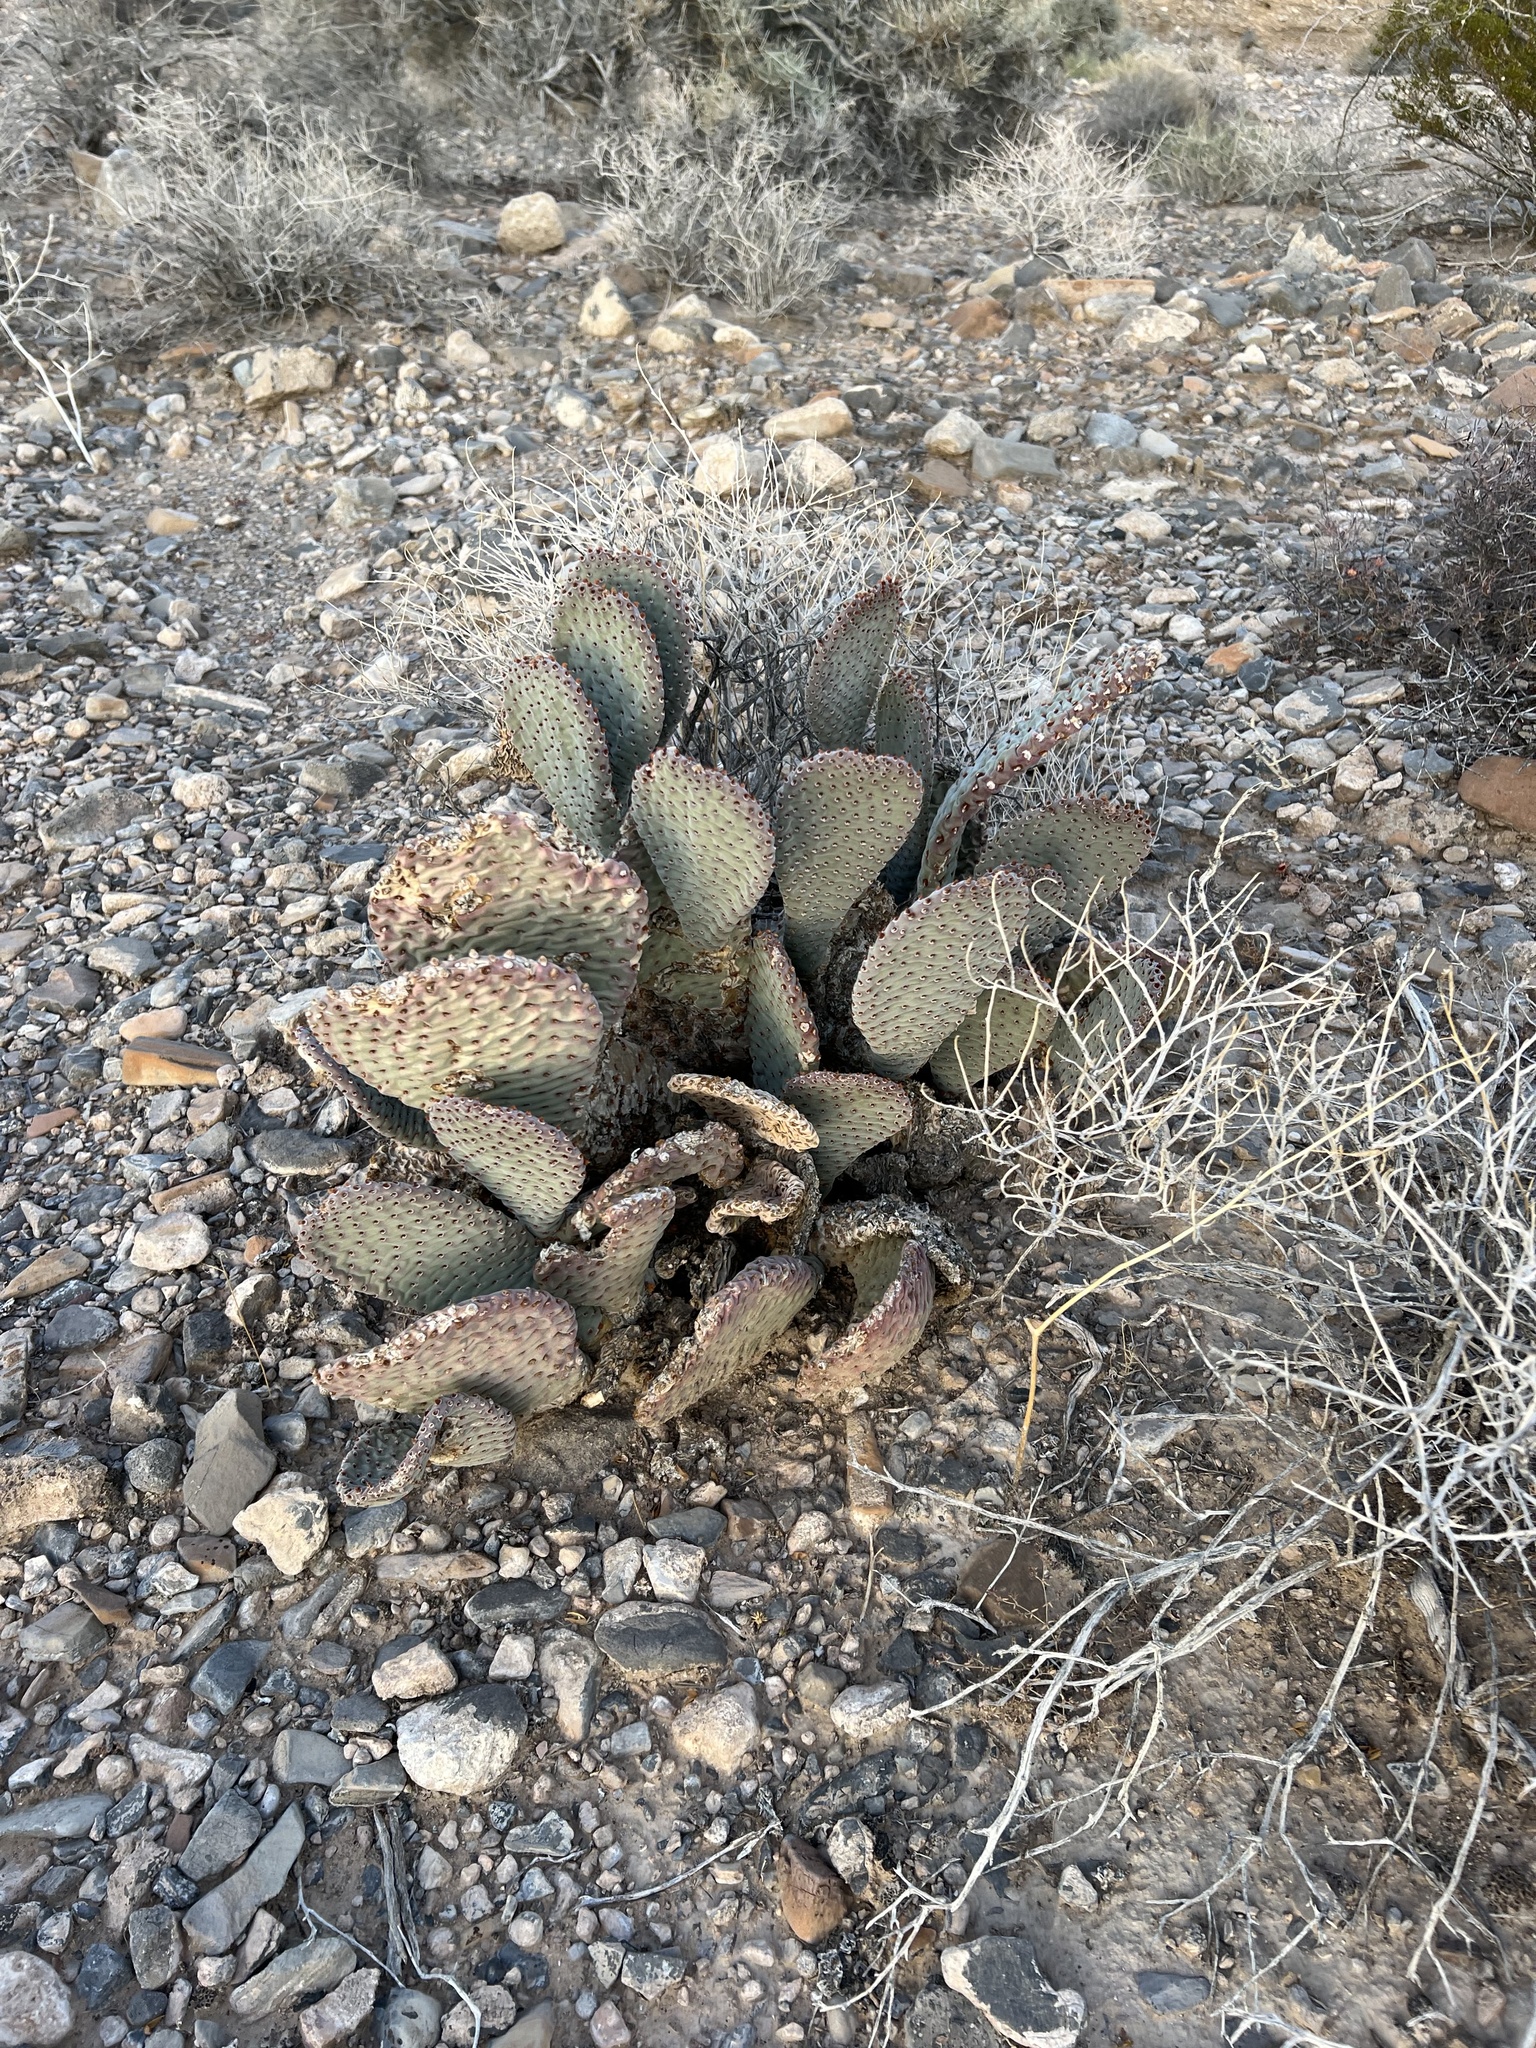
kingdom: Plantae
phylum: Tracheophyta
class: Magnoliopsida
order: Caryophyllales
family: Cactaceae
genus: Opuntia
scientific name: Opuntia basilaris
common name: Beavertail prickly-pear
